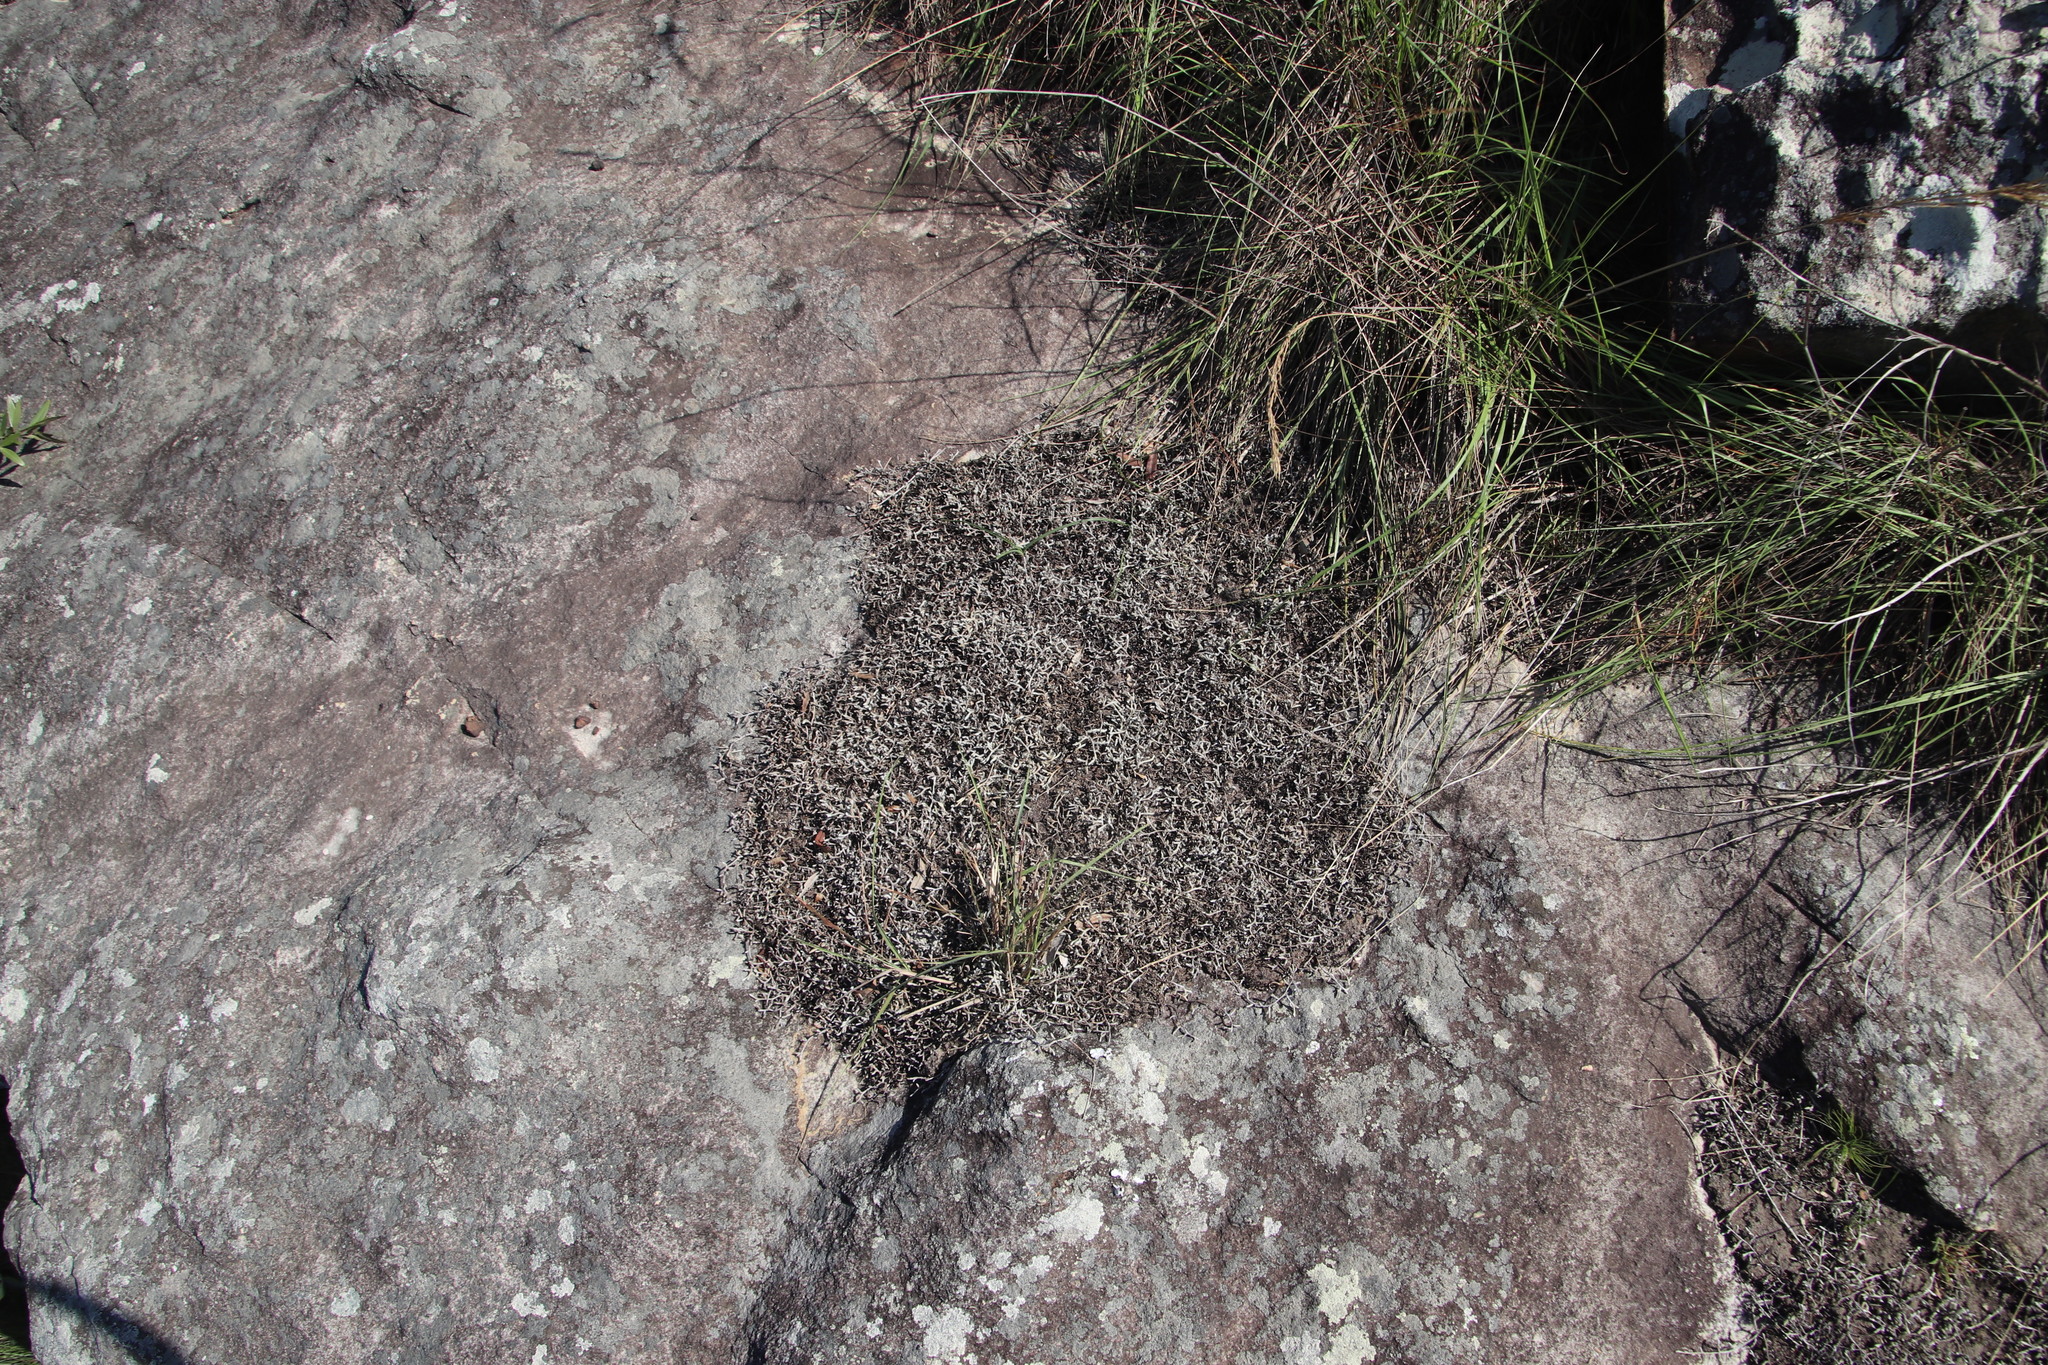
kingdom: Plantae
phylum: Tracheophyta
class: Lycopodiopsida
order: Selaginellales
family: Selaginellaceae
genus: Selaginella
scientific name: Selaginella dregei
